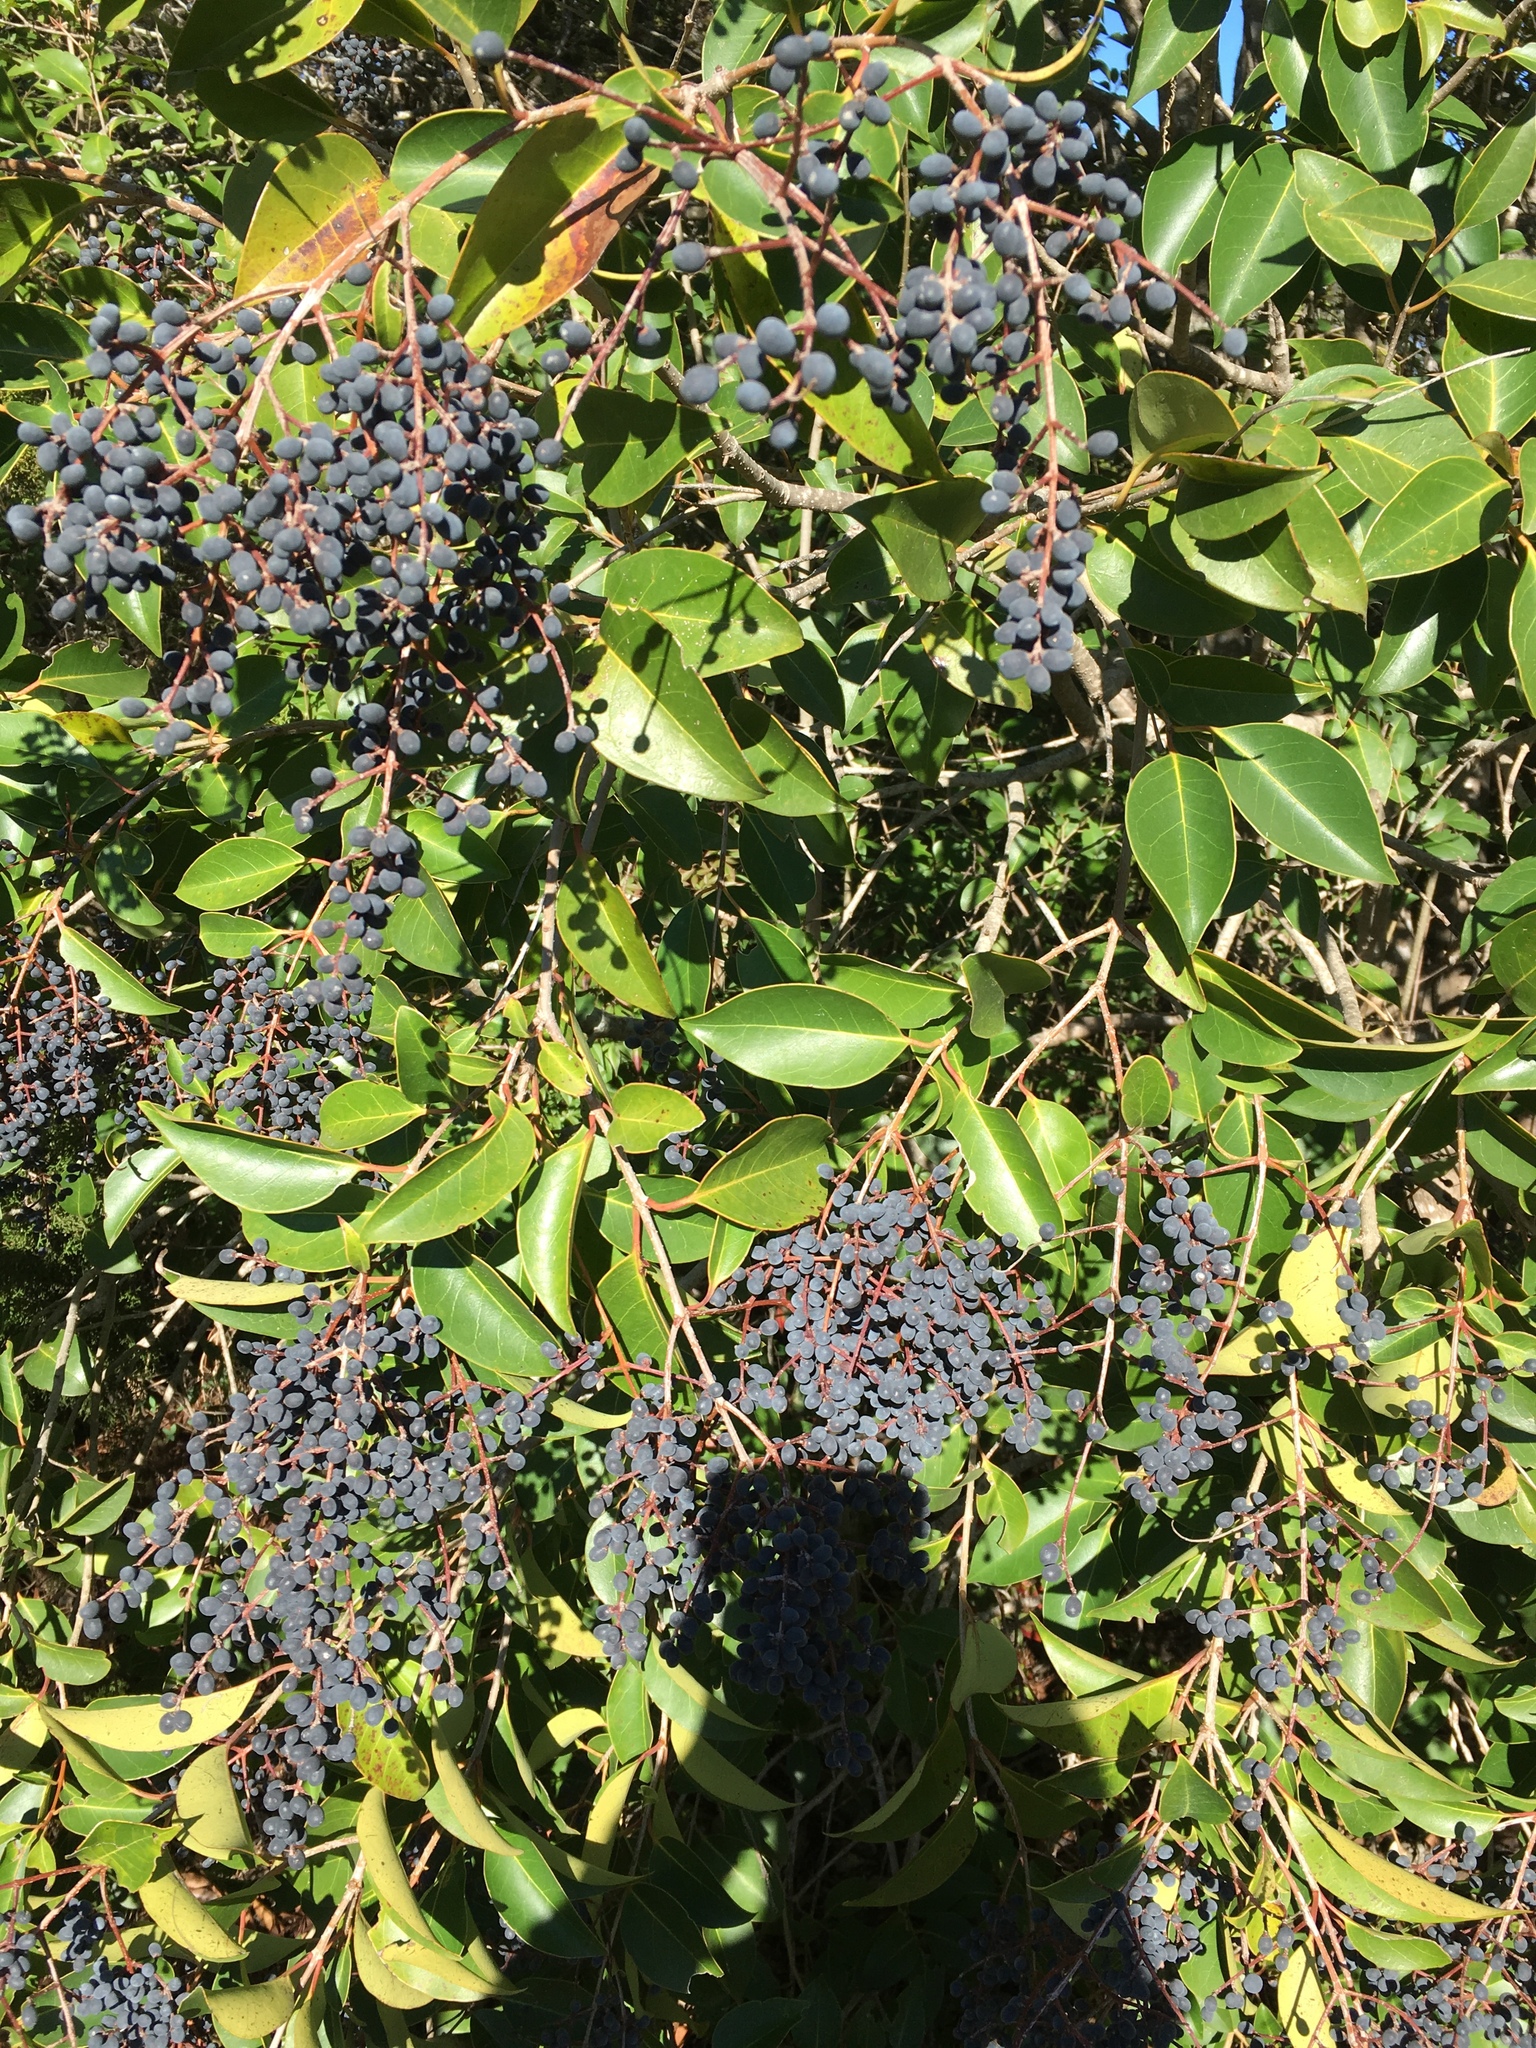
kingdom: Plantae
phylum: Tracheophyta
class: Magnoliopsida
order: Lamiales
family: Oleaceae
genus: Ligustrum
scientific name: Ligustrum lucidum
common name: Glossy privet
